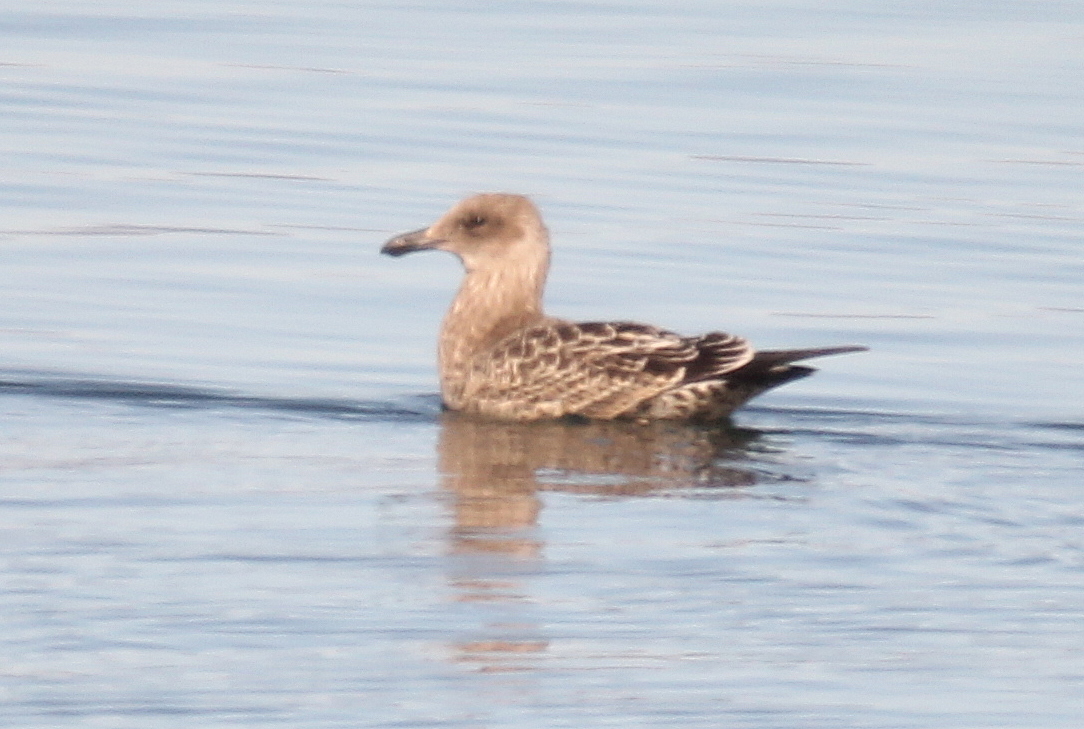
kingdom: Animalia
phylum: Chordata
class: Aves
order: Charadriiformes
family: Laridae
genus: Larus
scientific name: Larus dominicanus
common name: Kelp gull
